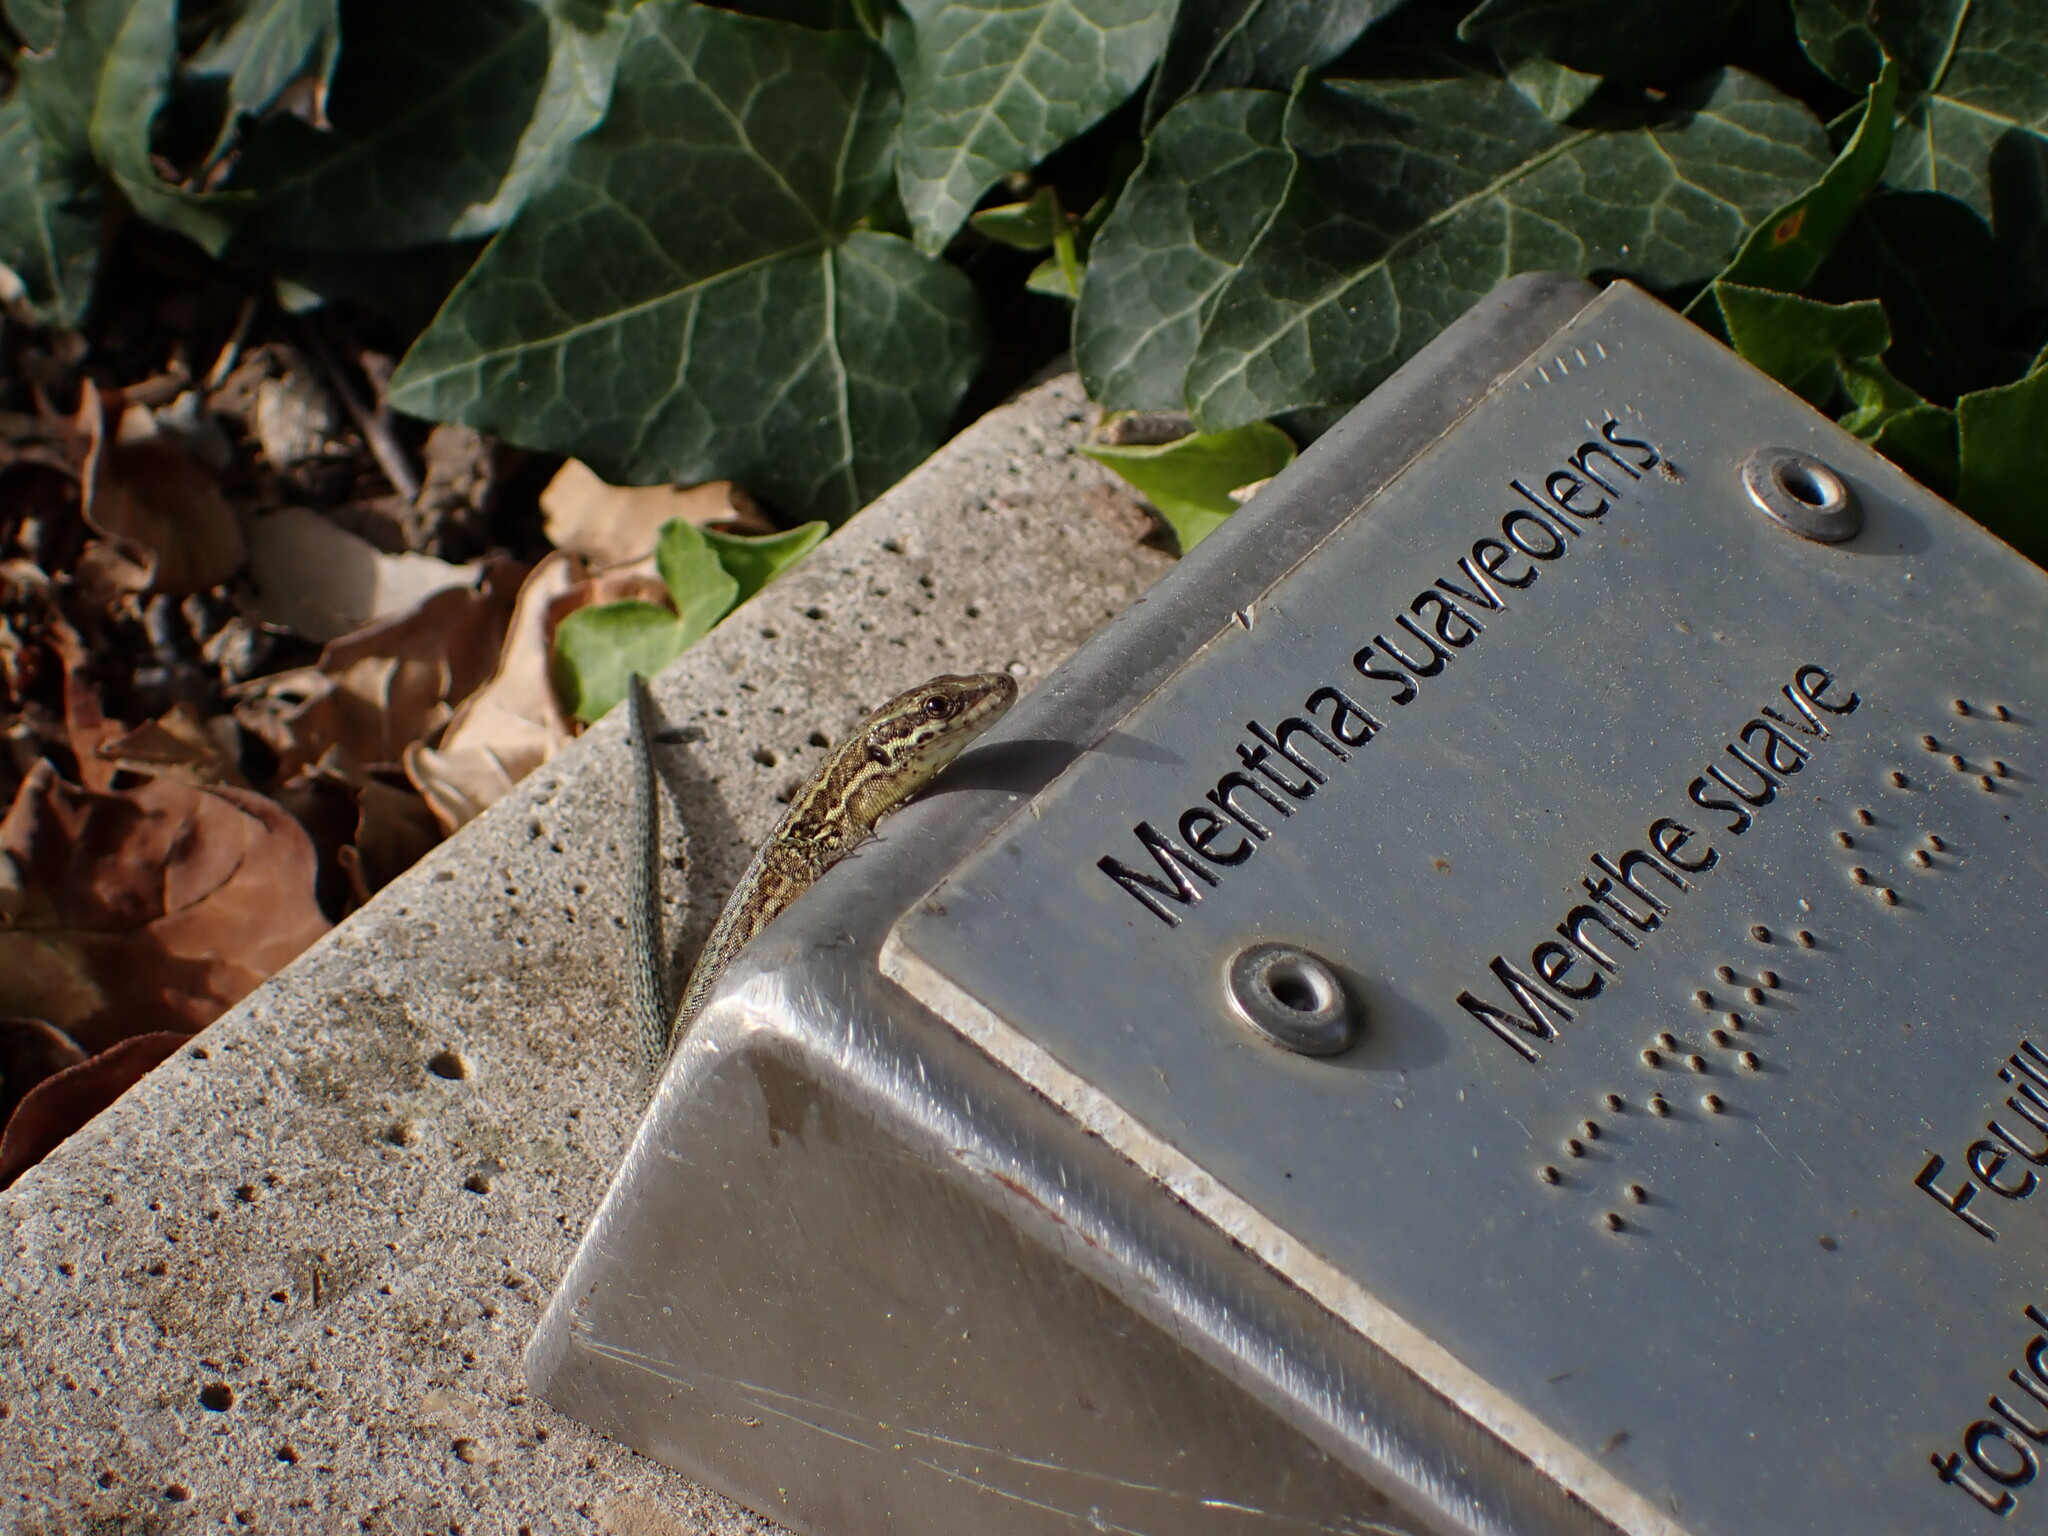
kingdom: Animalia
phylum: Chordata
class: Squamata
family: Lacertidae
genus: Podarcis
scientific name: Podarcis muralis
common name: Common wall lizard
